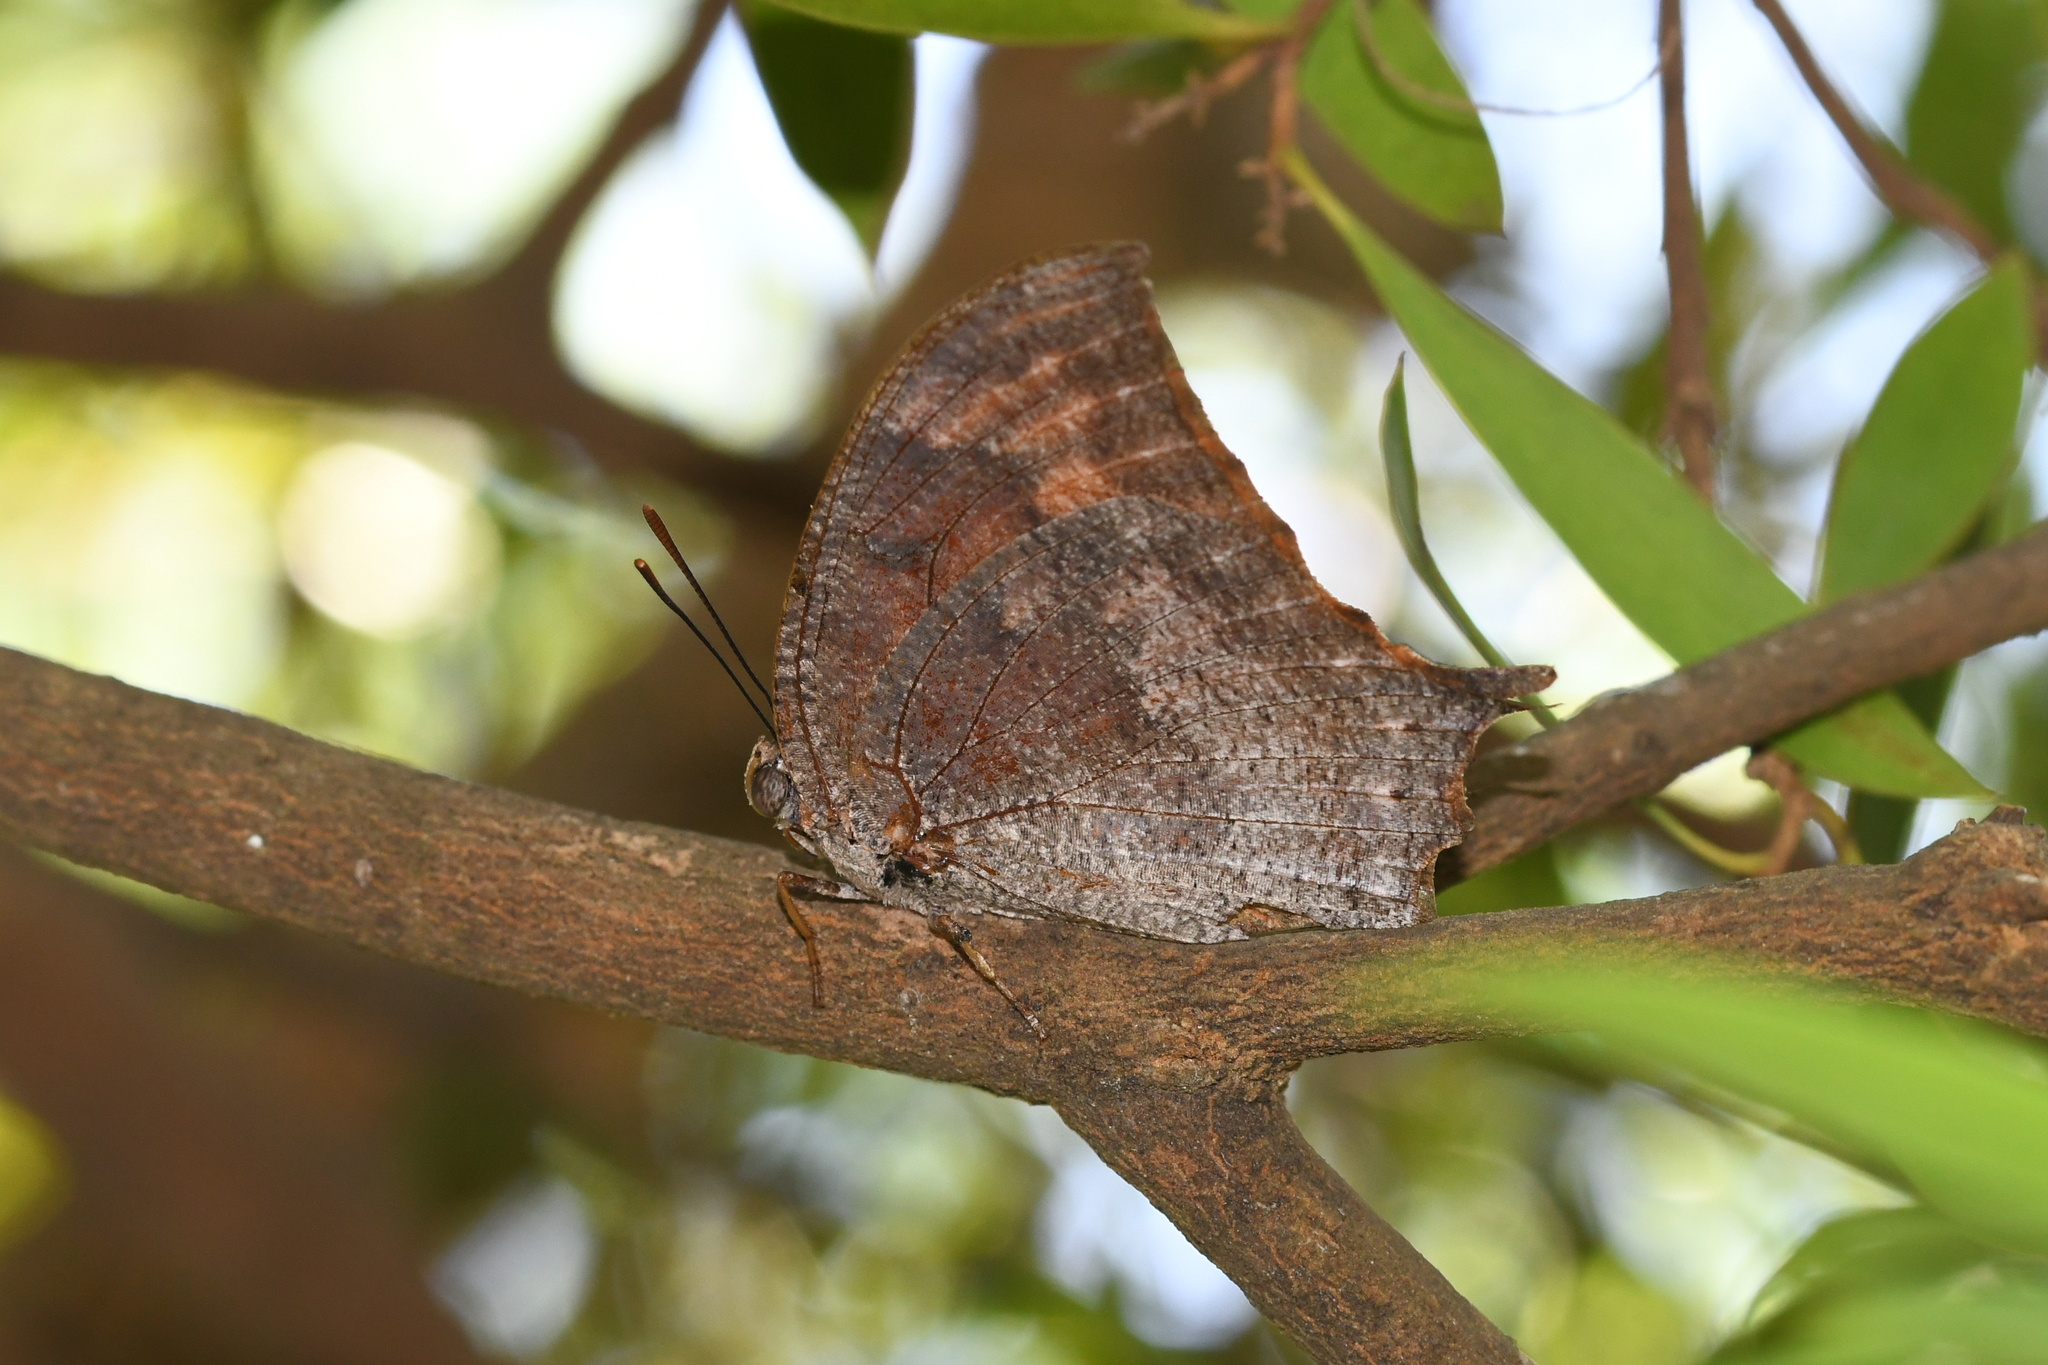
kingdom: Animalia
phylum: Arthropoda
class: Insecta
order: Lepidoptera
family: Nymphalidae
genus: Anaea
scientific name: Anaea troglodyta
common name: Florida leafwing
